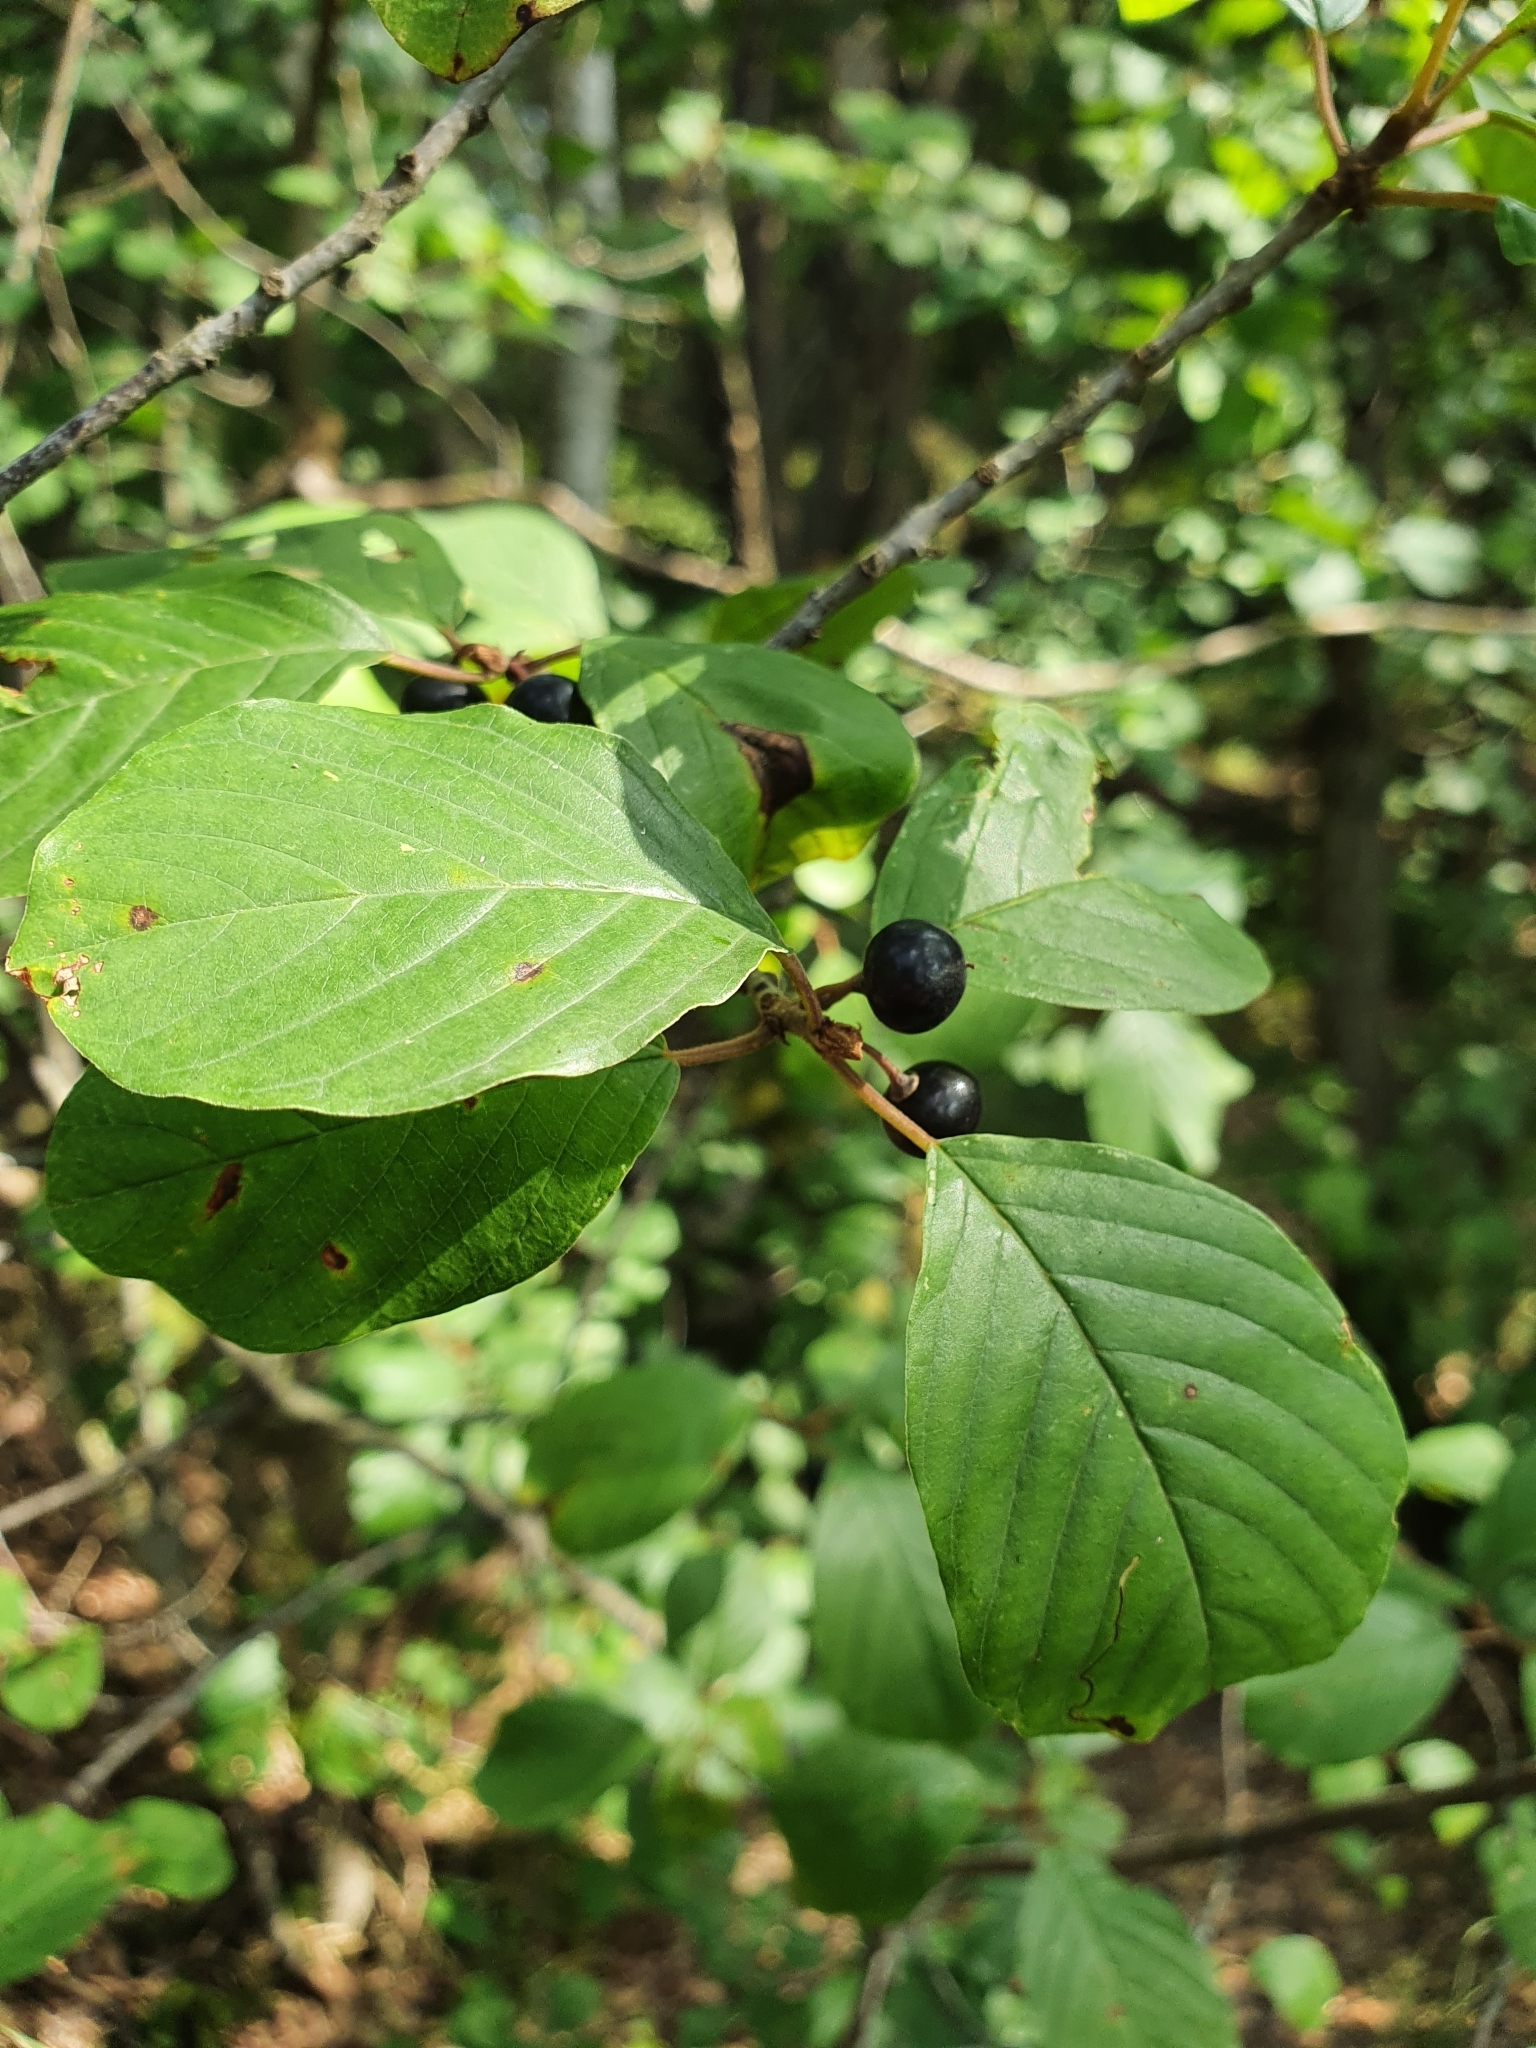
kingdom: Plantae
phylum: Tracheophyta
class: Magnoliopsida
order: Rosales
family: Rhamnaceae
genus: Frangula
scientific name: Frangula alnus
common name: Alder buckthorn
